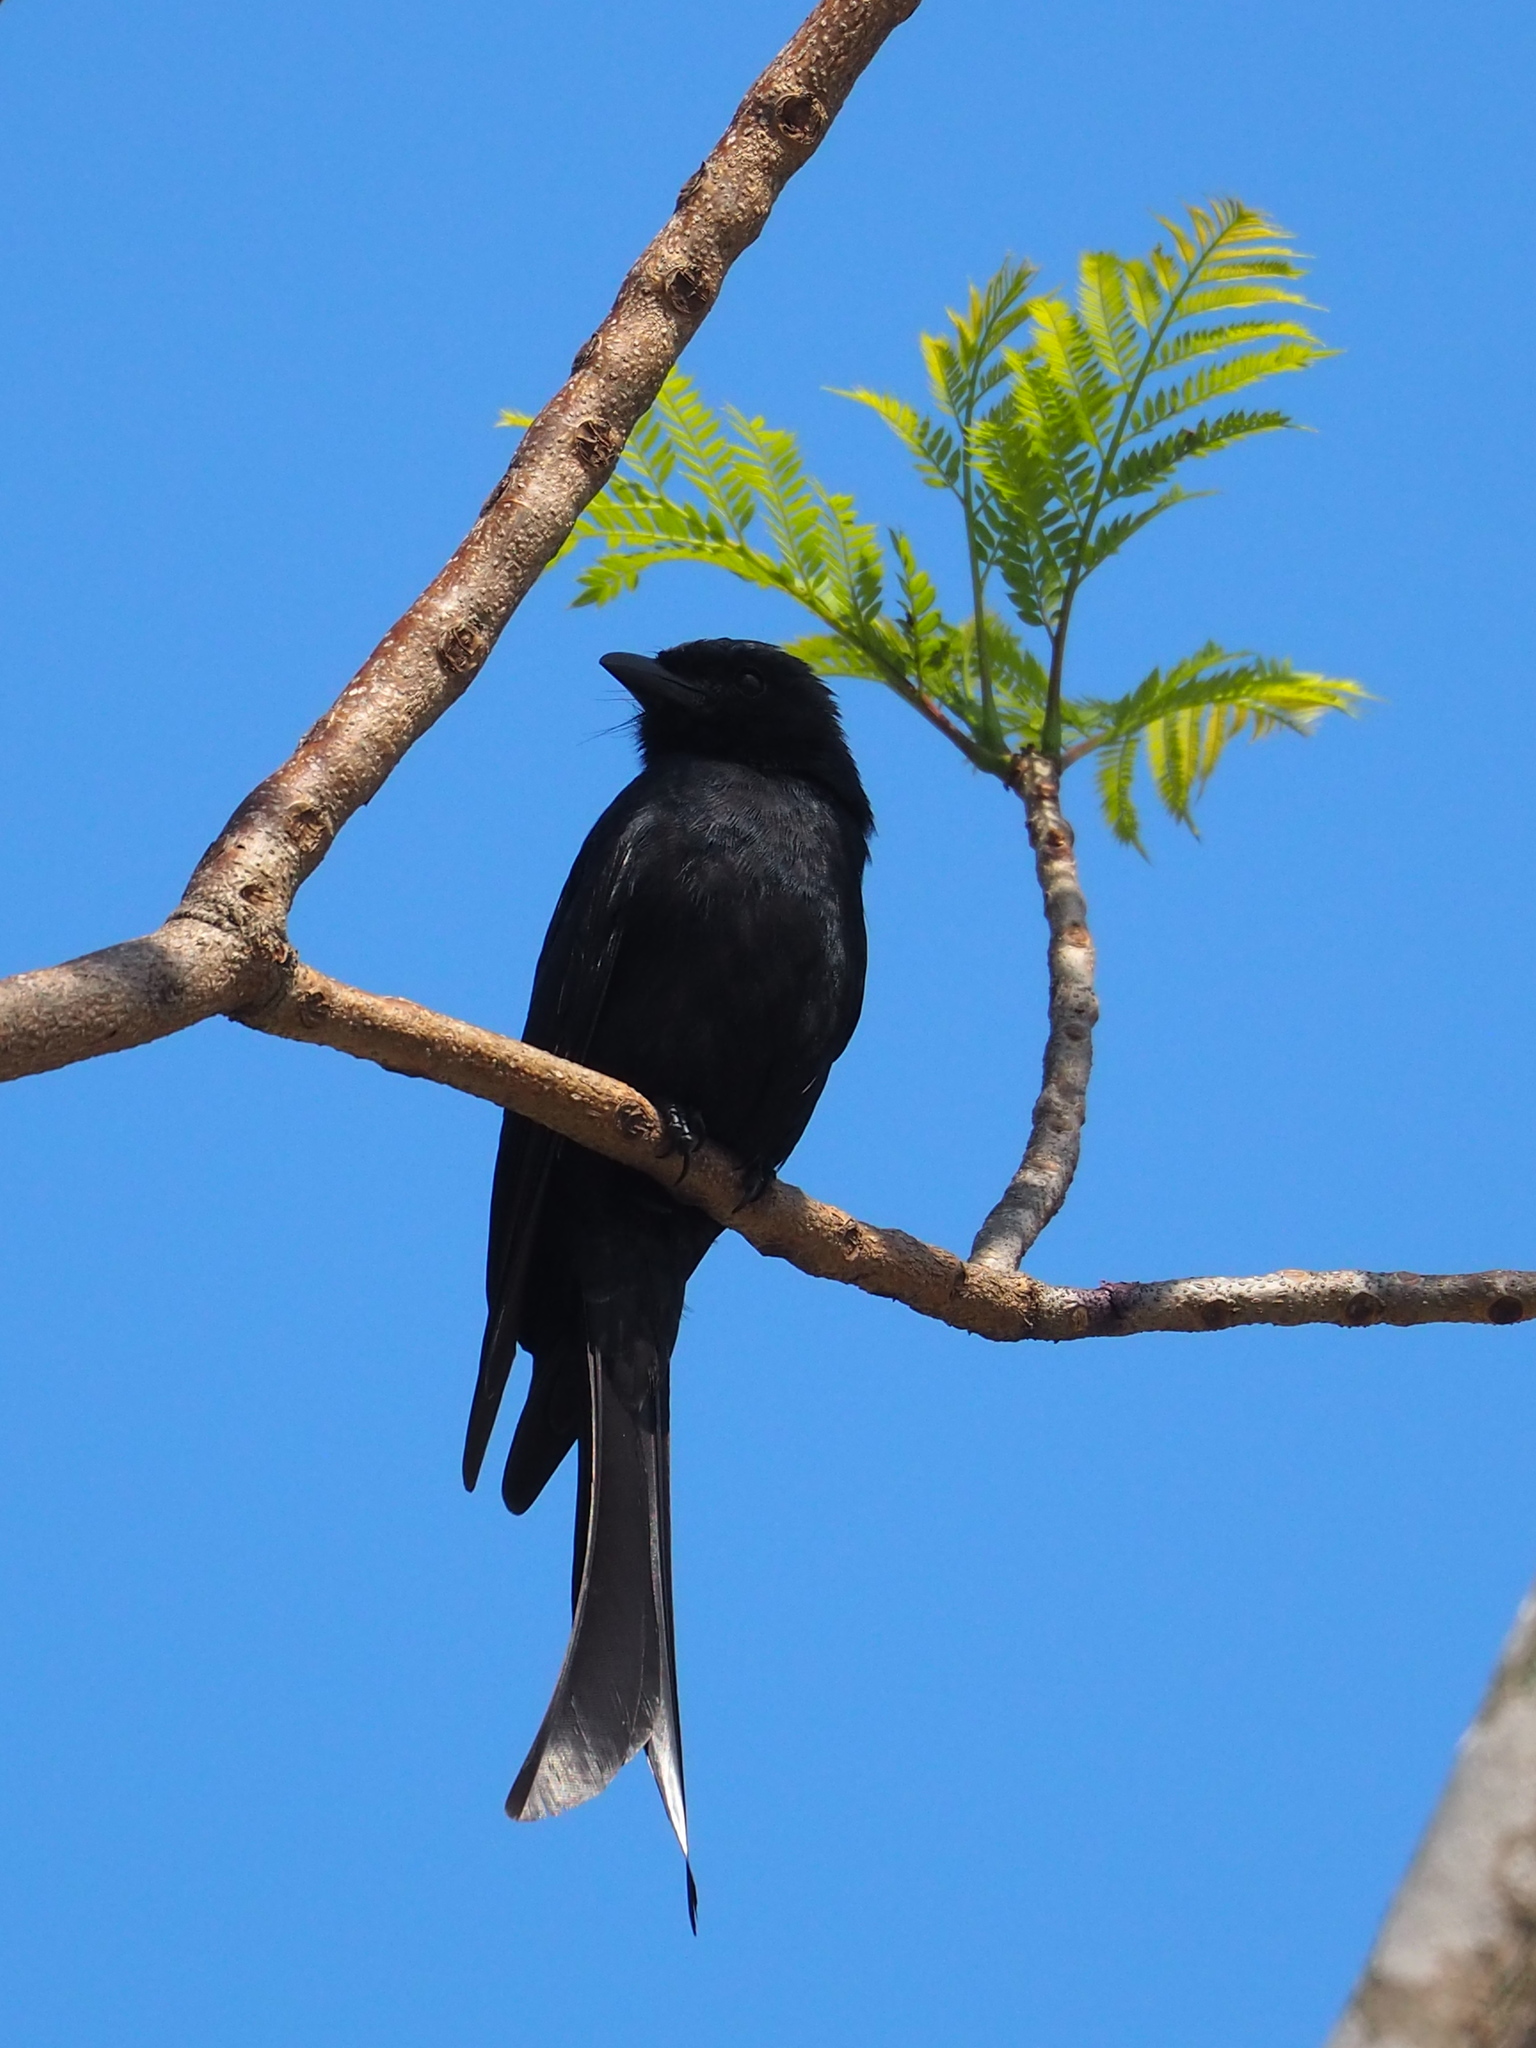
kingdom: Animalia
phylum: Chordata
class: Aves
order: Passeriformes
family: Dicruridae
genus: Dicrurus
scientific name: Dicrurus macrocercus
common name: Black drongo
